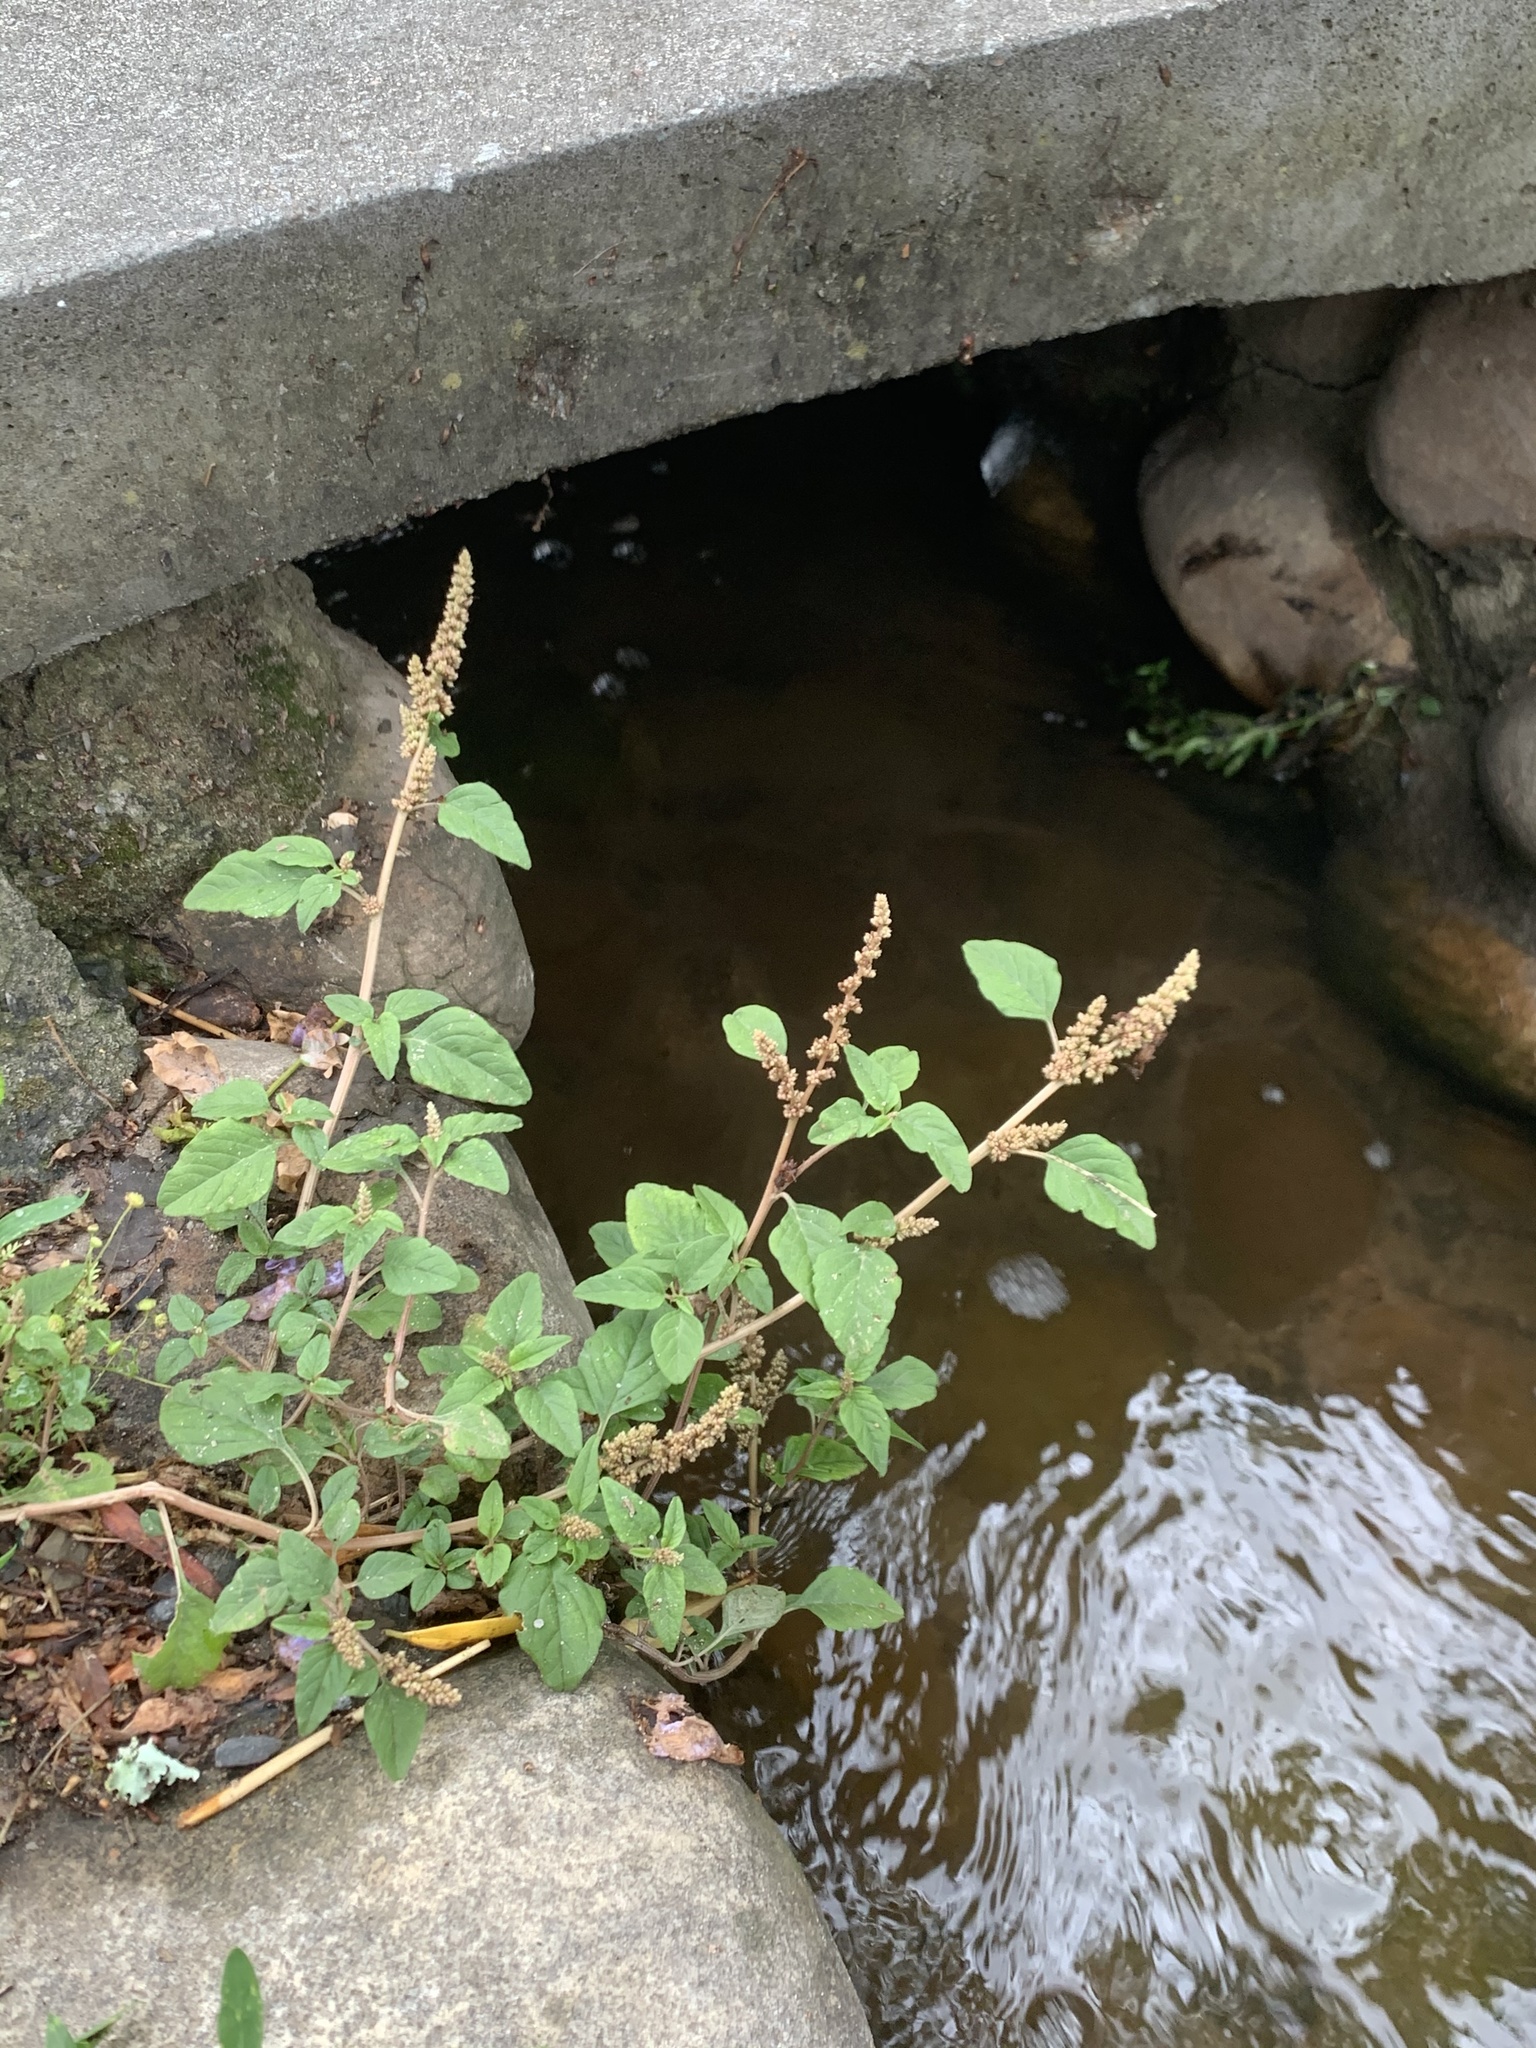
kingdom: Plantae
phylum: Tracheophyta
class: Magnoliopsida
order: Caryophyllales
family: Amaranthaceae
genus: Amaranthus
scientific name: Amaranthus deflexus
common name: Perennial pigweed
